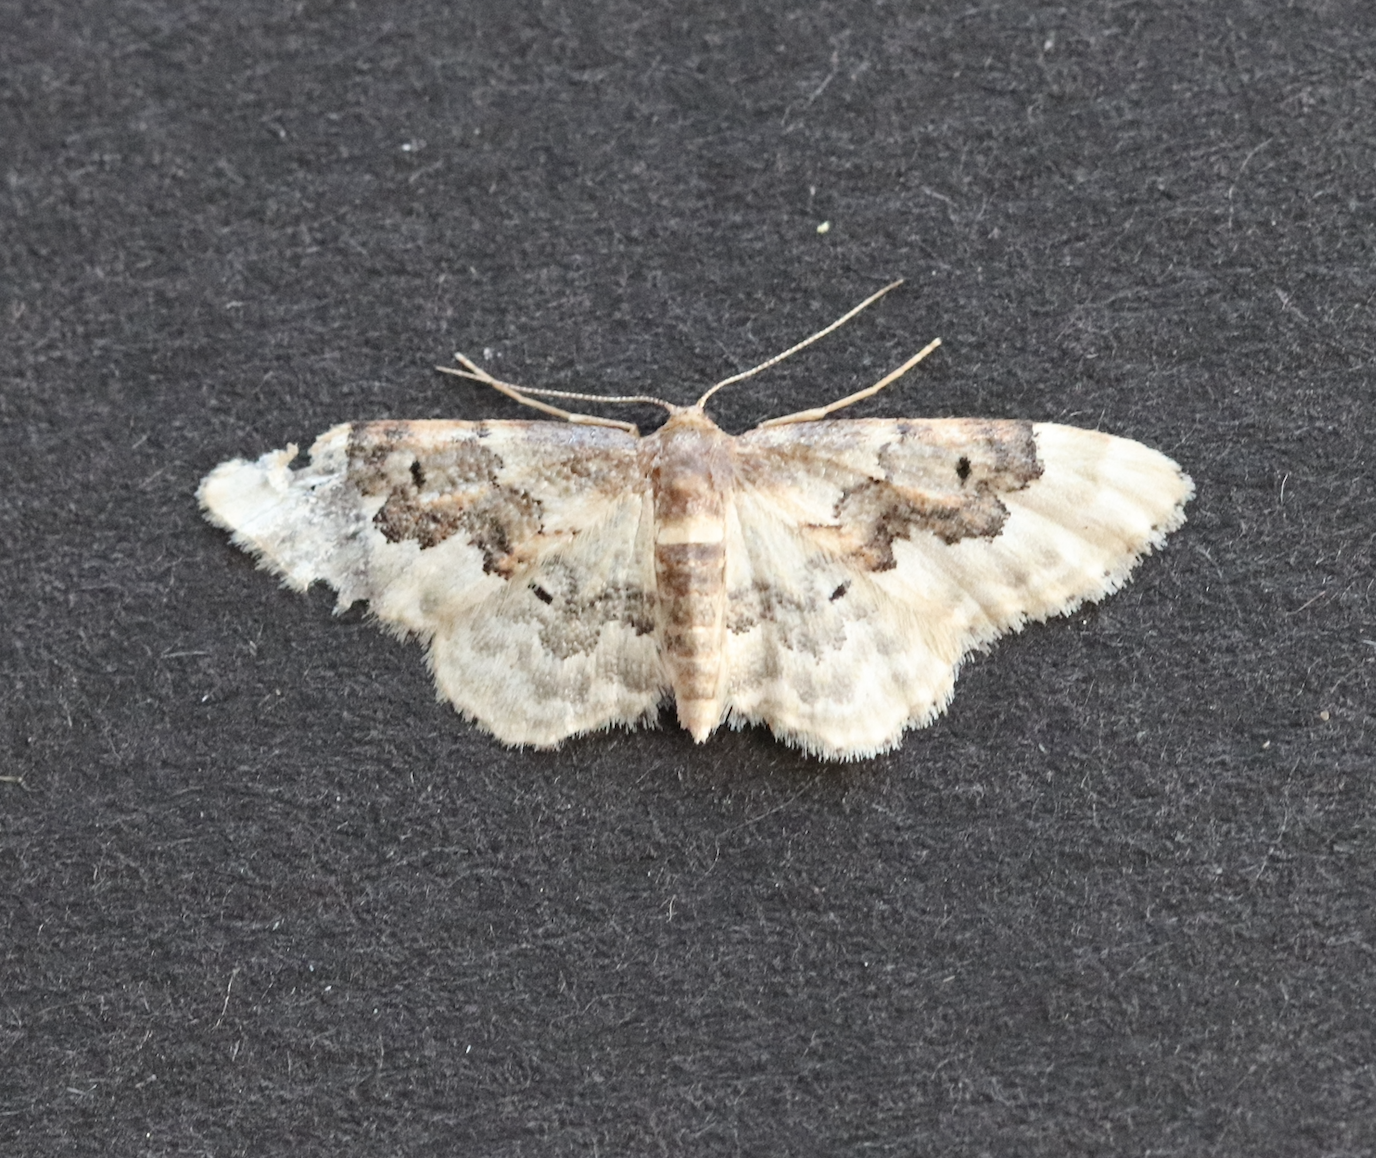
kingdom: Animalia
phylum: Arthropoda
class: Insecta
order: Lepidoptera
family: Geometridae
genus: Idaea
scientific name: Idaea rusticata
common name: Least carpet
